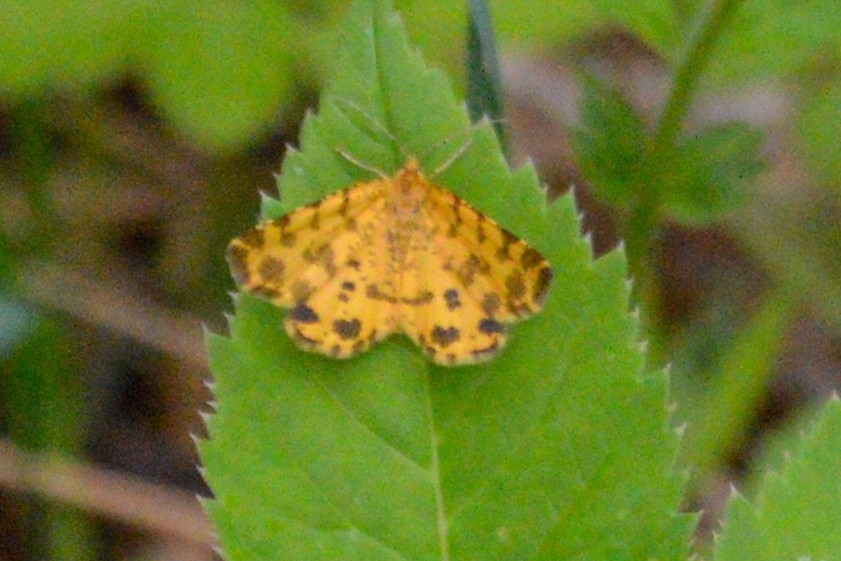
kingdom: Animalia
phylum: Arthropoda
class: Insecta
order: Lepidoptera
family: Geometridae
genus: Pseudopanthera
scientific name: Pseudopanthera macularia
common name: Speckled yellow
